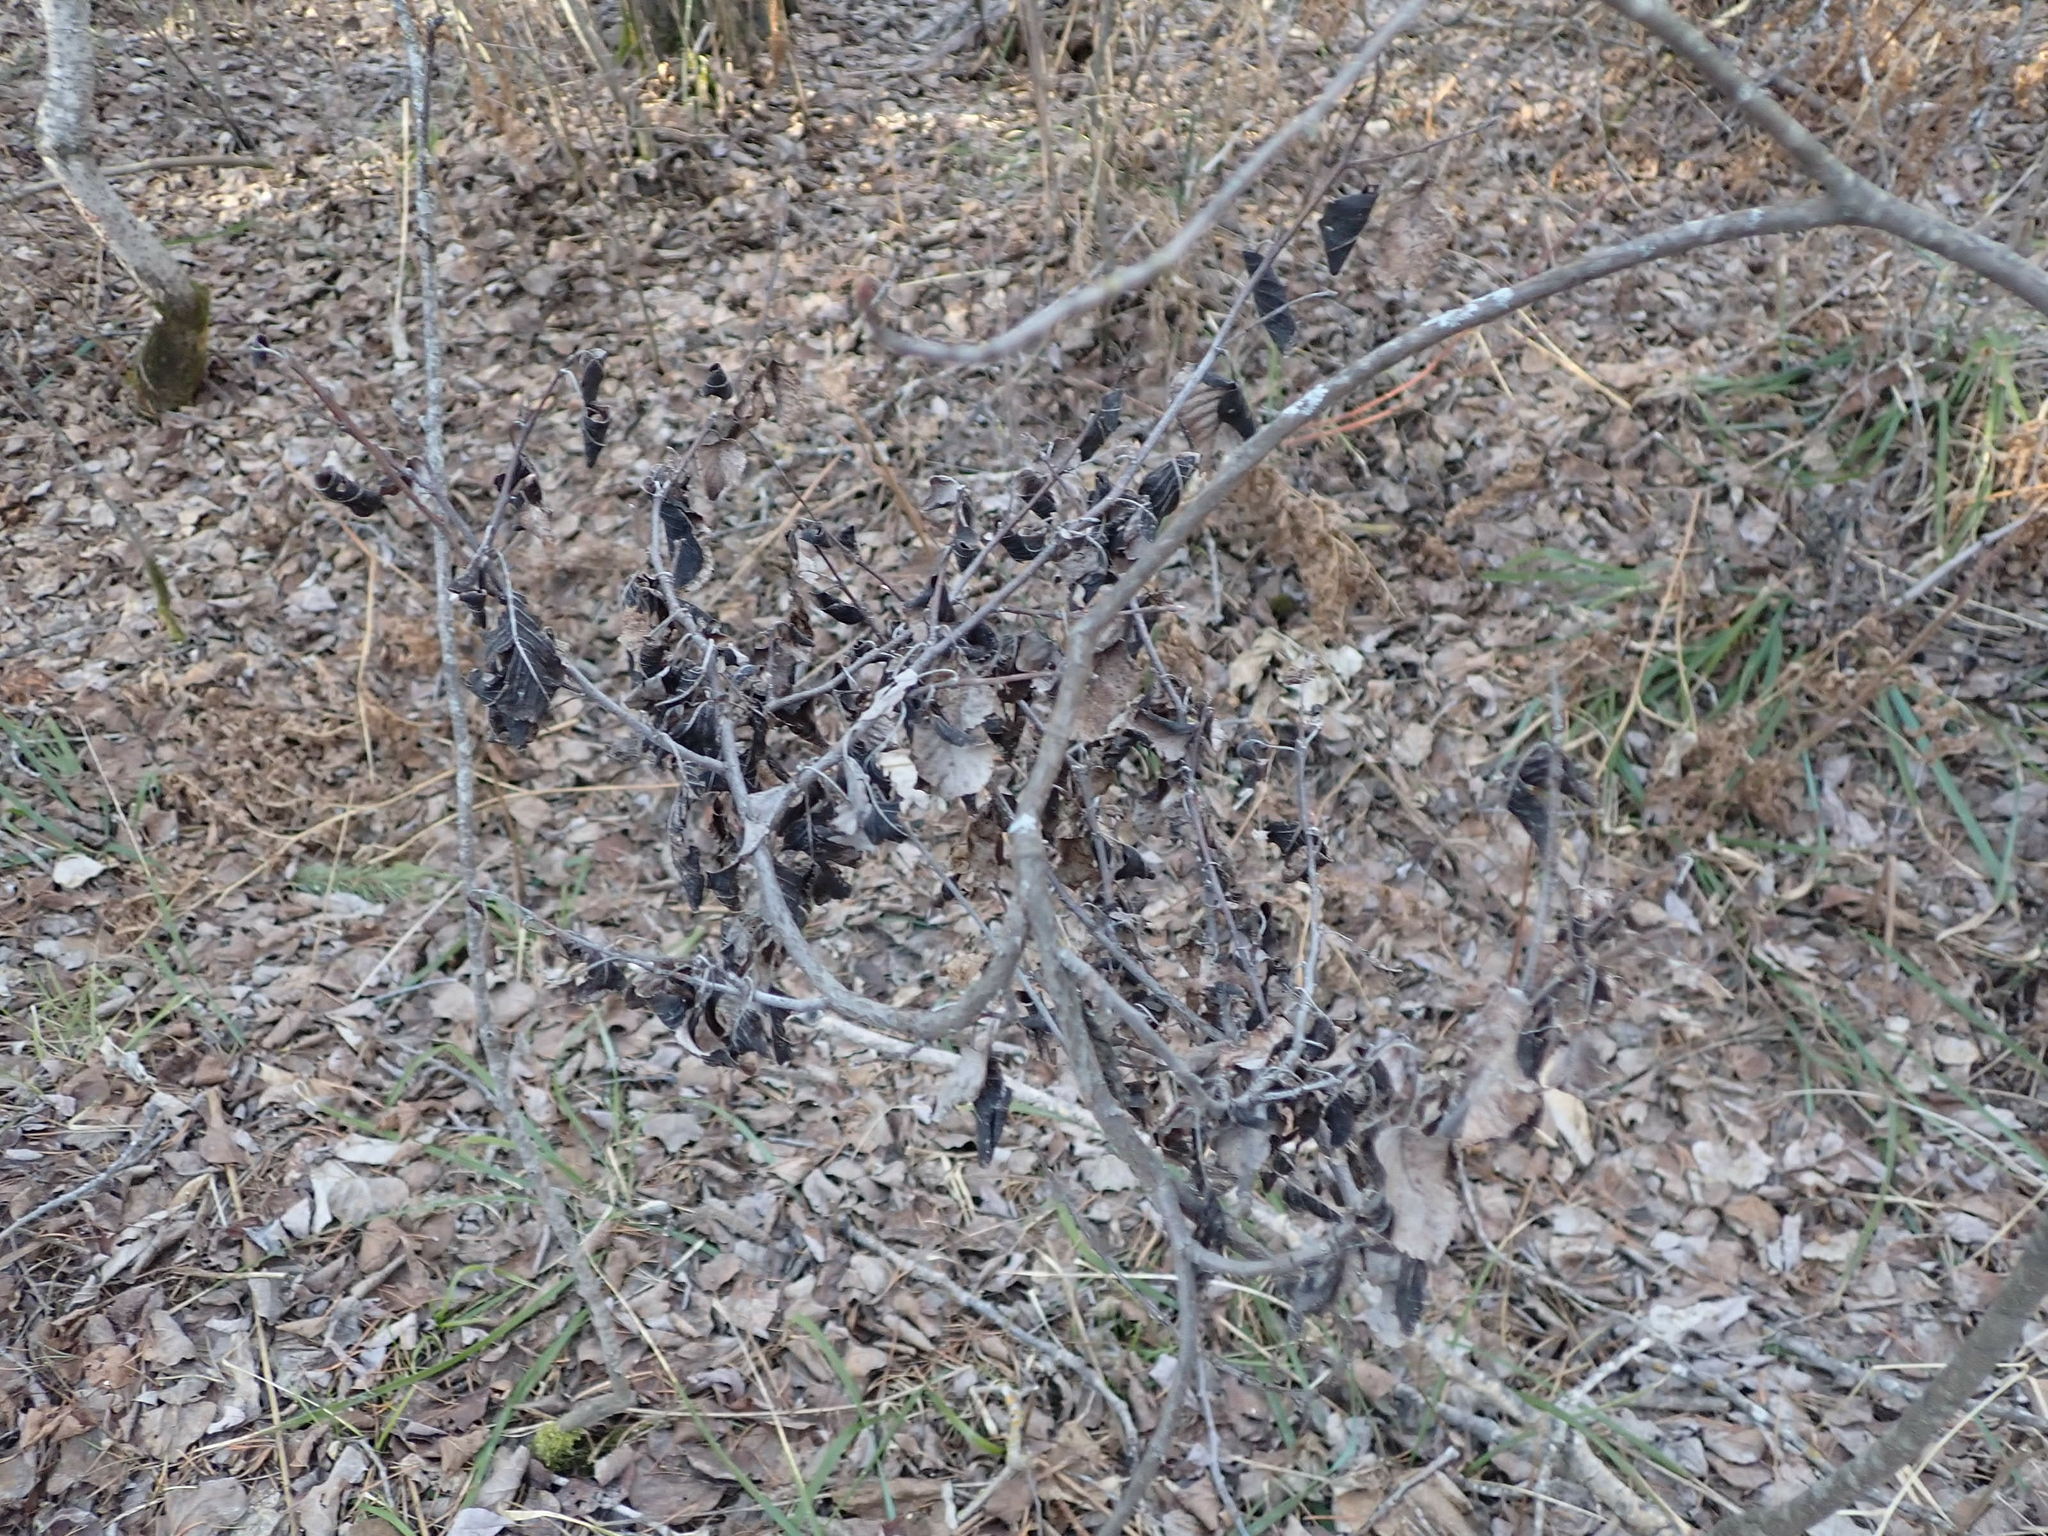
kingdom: Fungi
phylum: Ascomycota
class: Dothideomycetes
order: Venturiales
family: Venturiaceae
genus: Apiosporina
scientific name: Apiosporina collinsii
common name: Black leaf
